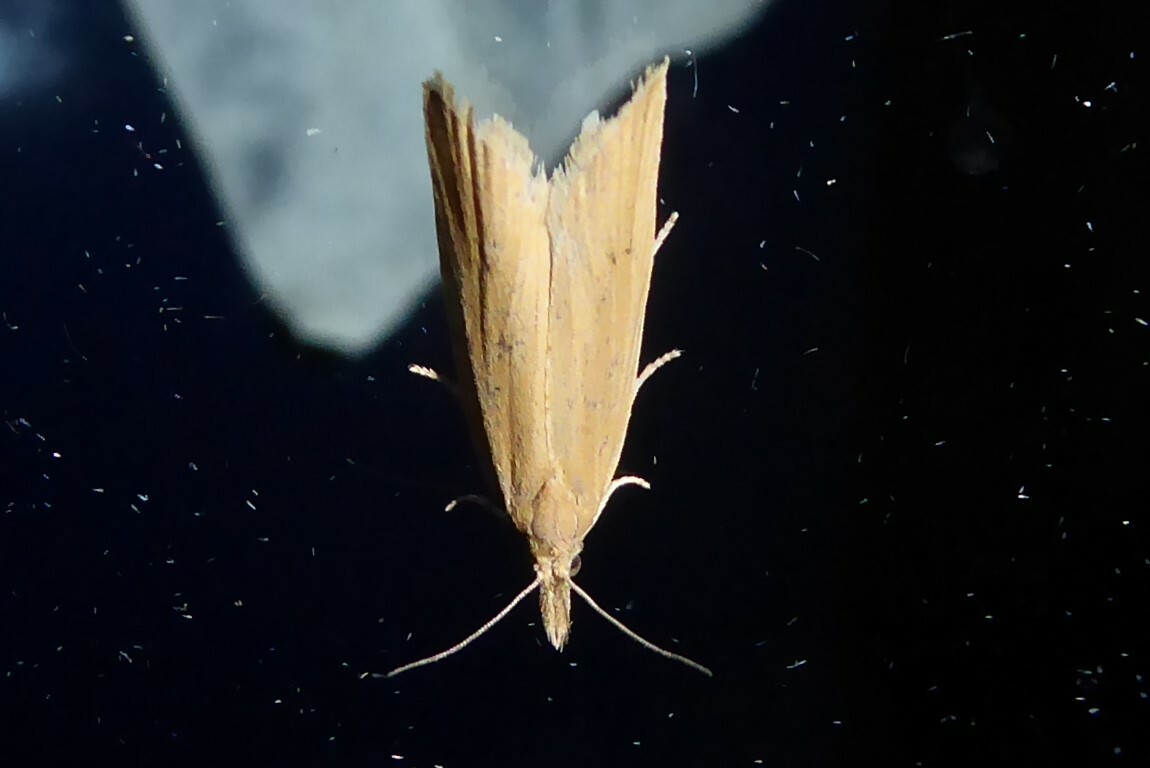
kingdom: Animalia
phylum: Arthropoda
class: Insecta
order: Lepidoptera
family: Tortricidae
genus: Bactra
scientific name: Bactra noteraula
